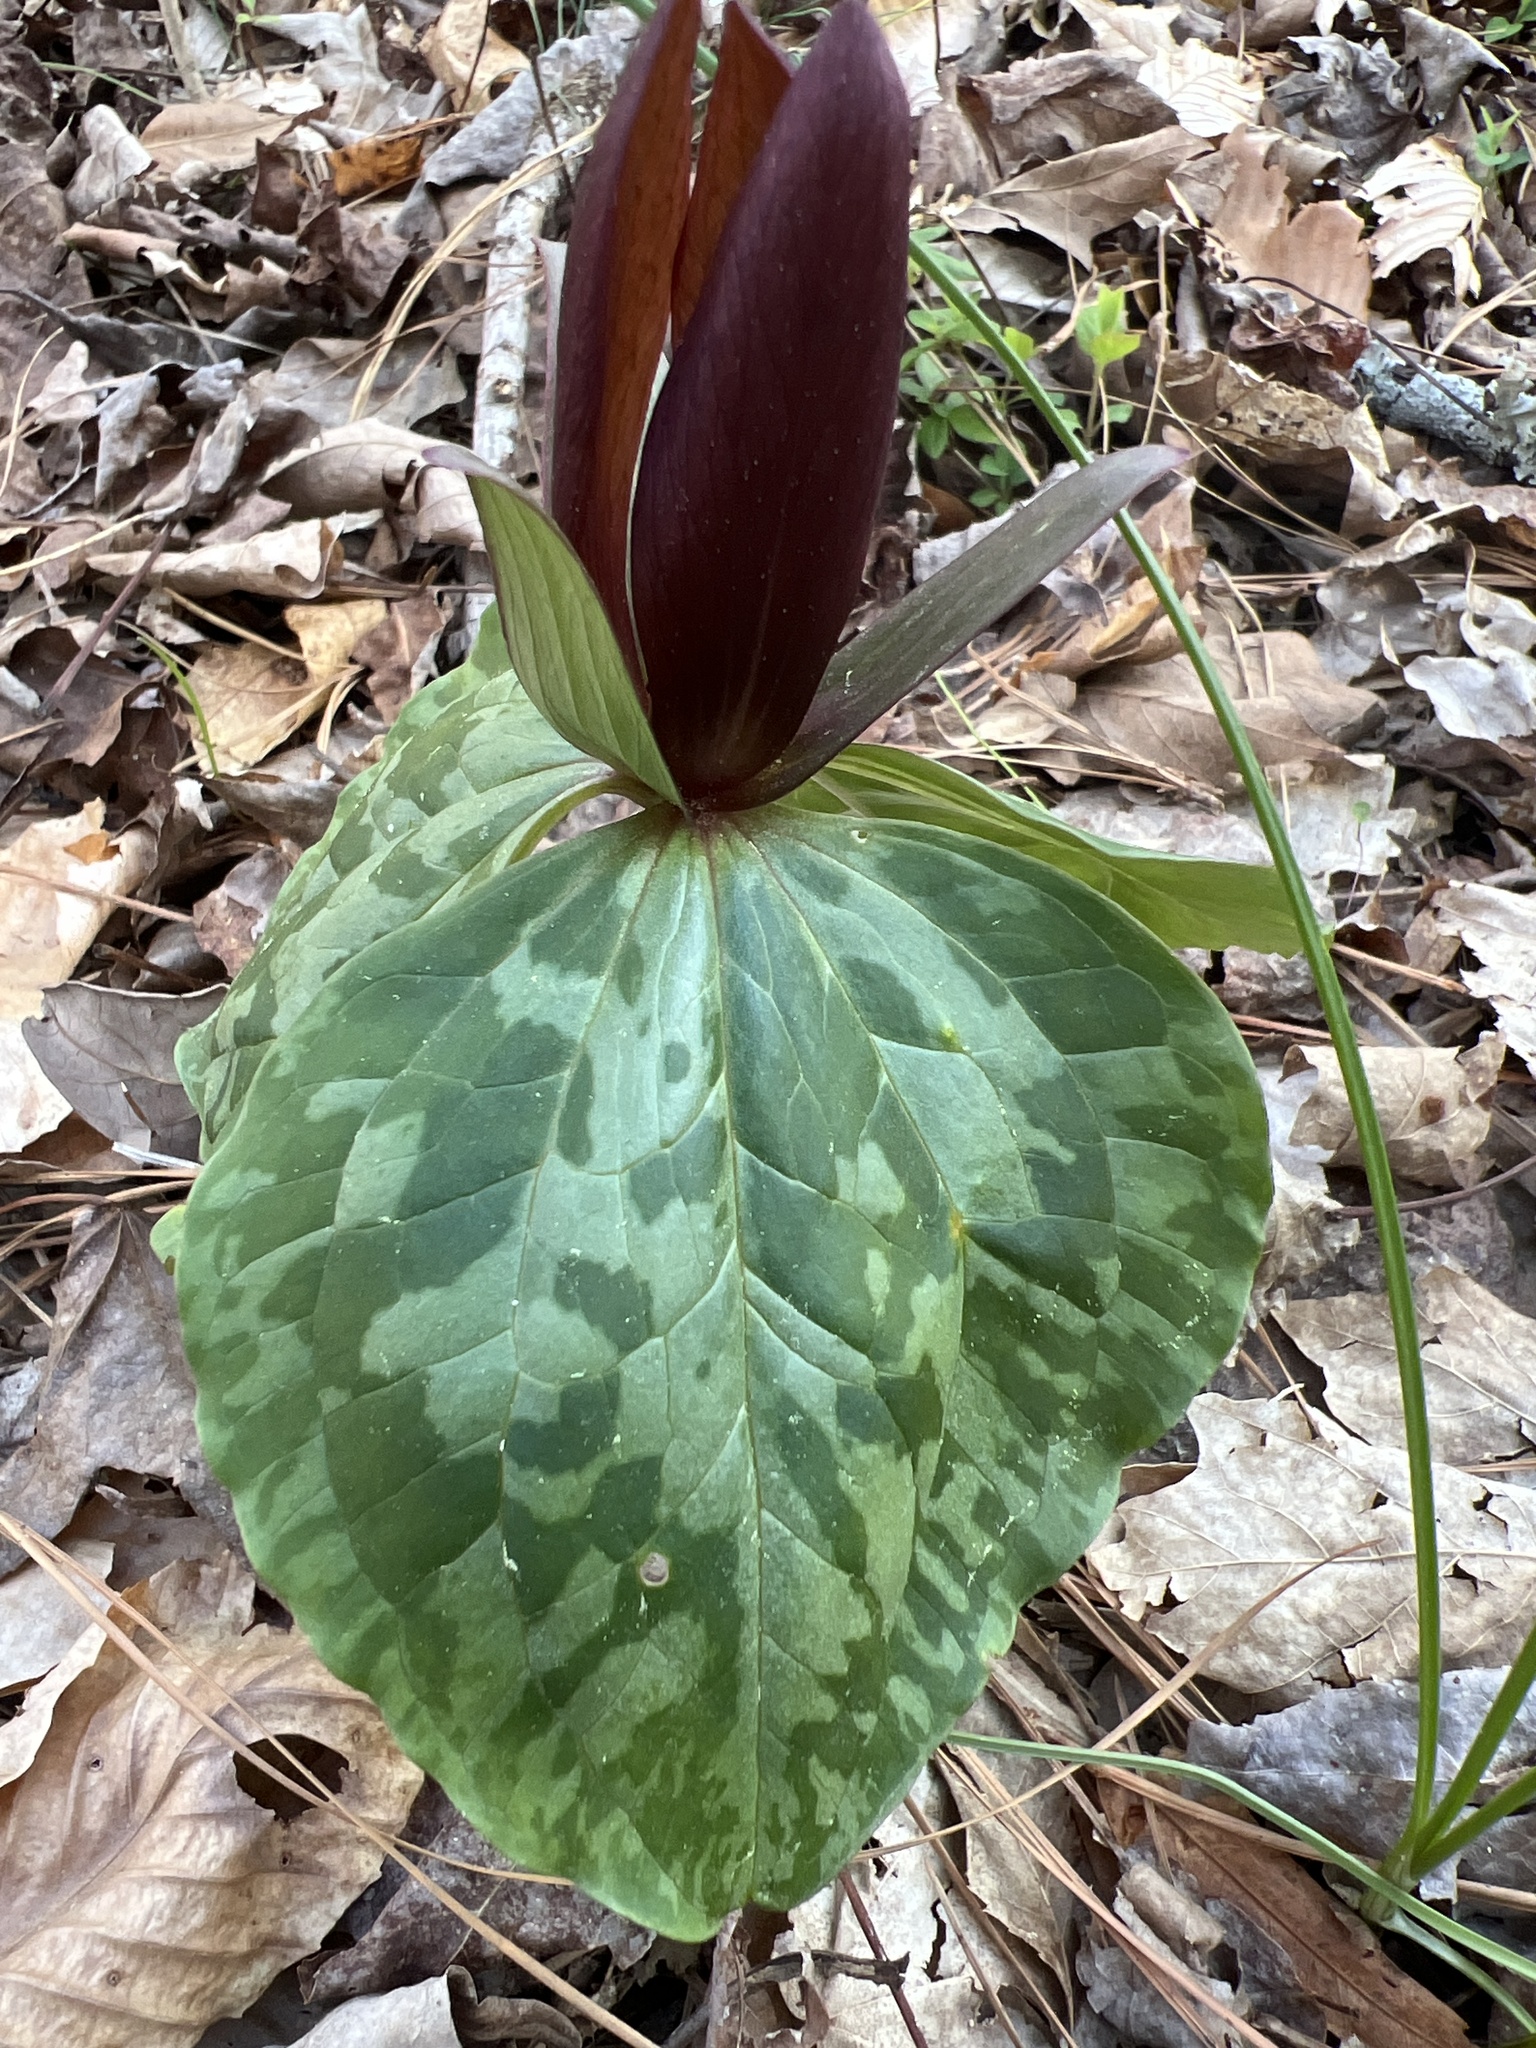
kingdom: Plantae
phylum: Tracheophyta
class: Liliopsida
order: Liliales
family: Melanthiaceae
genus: Trillium
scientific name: Trillium cuneatum
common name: Cuneate trillium
